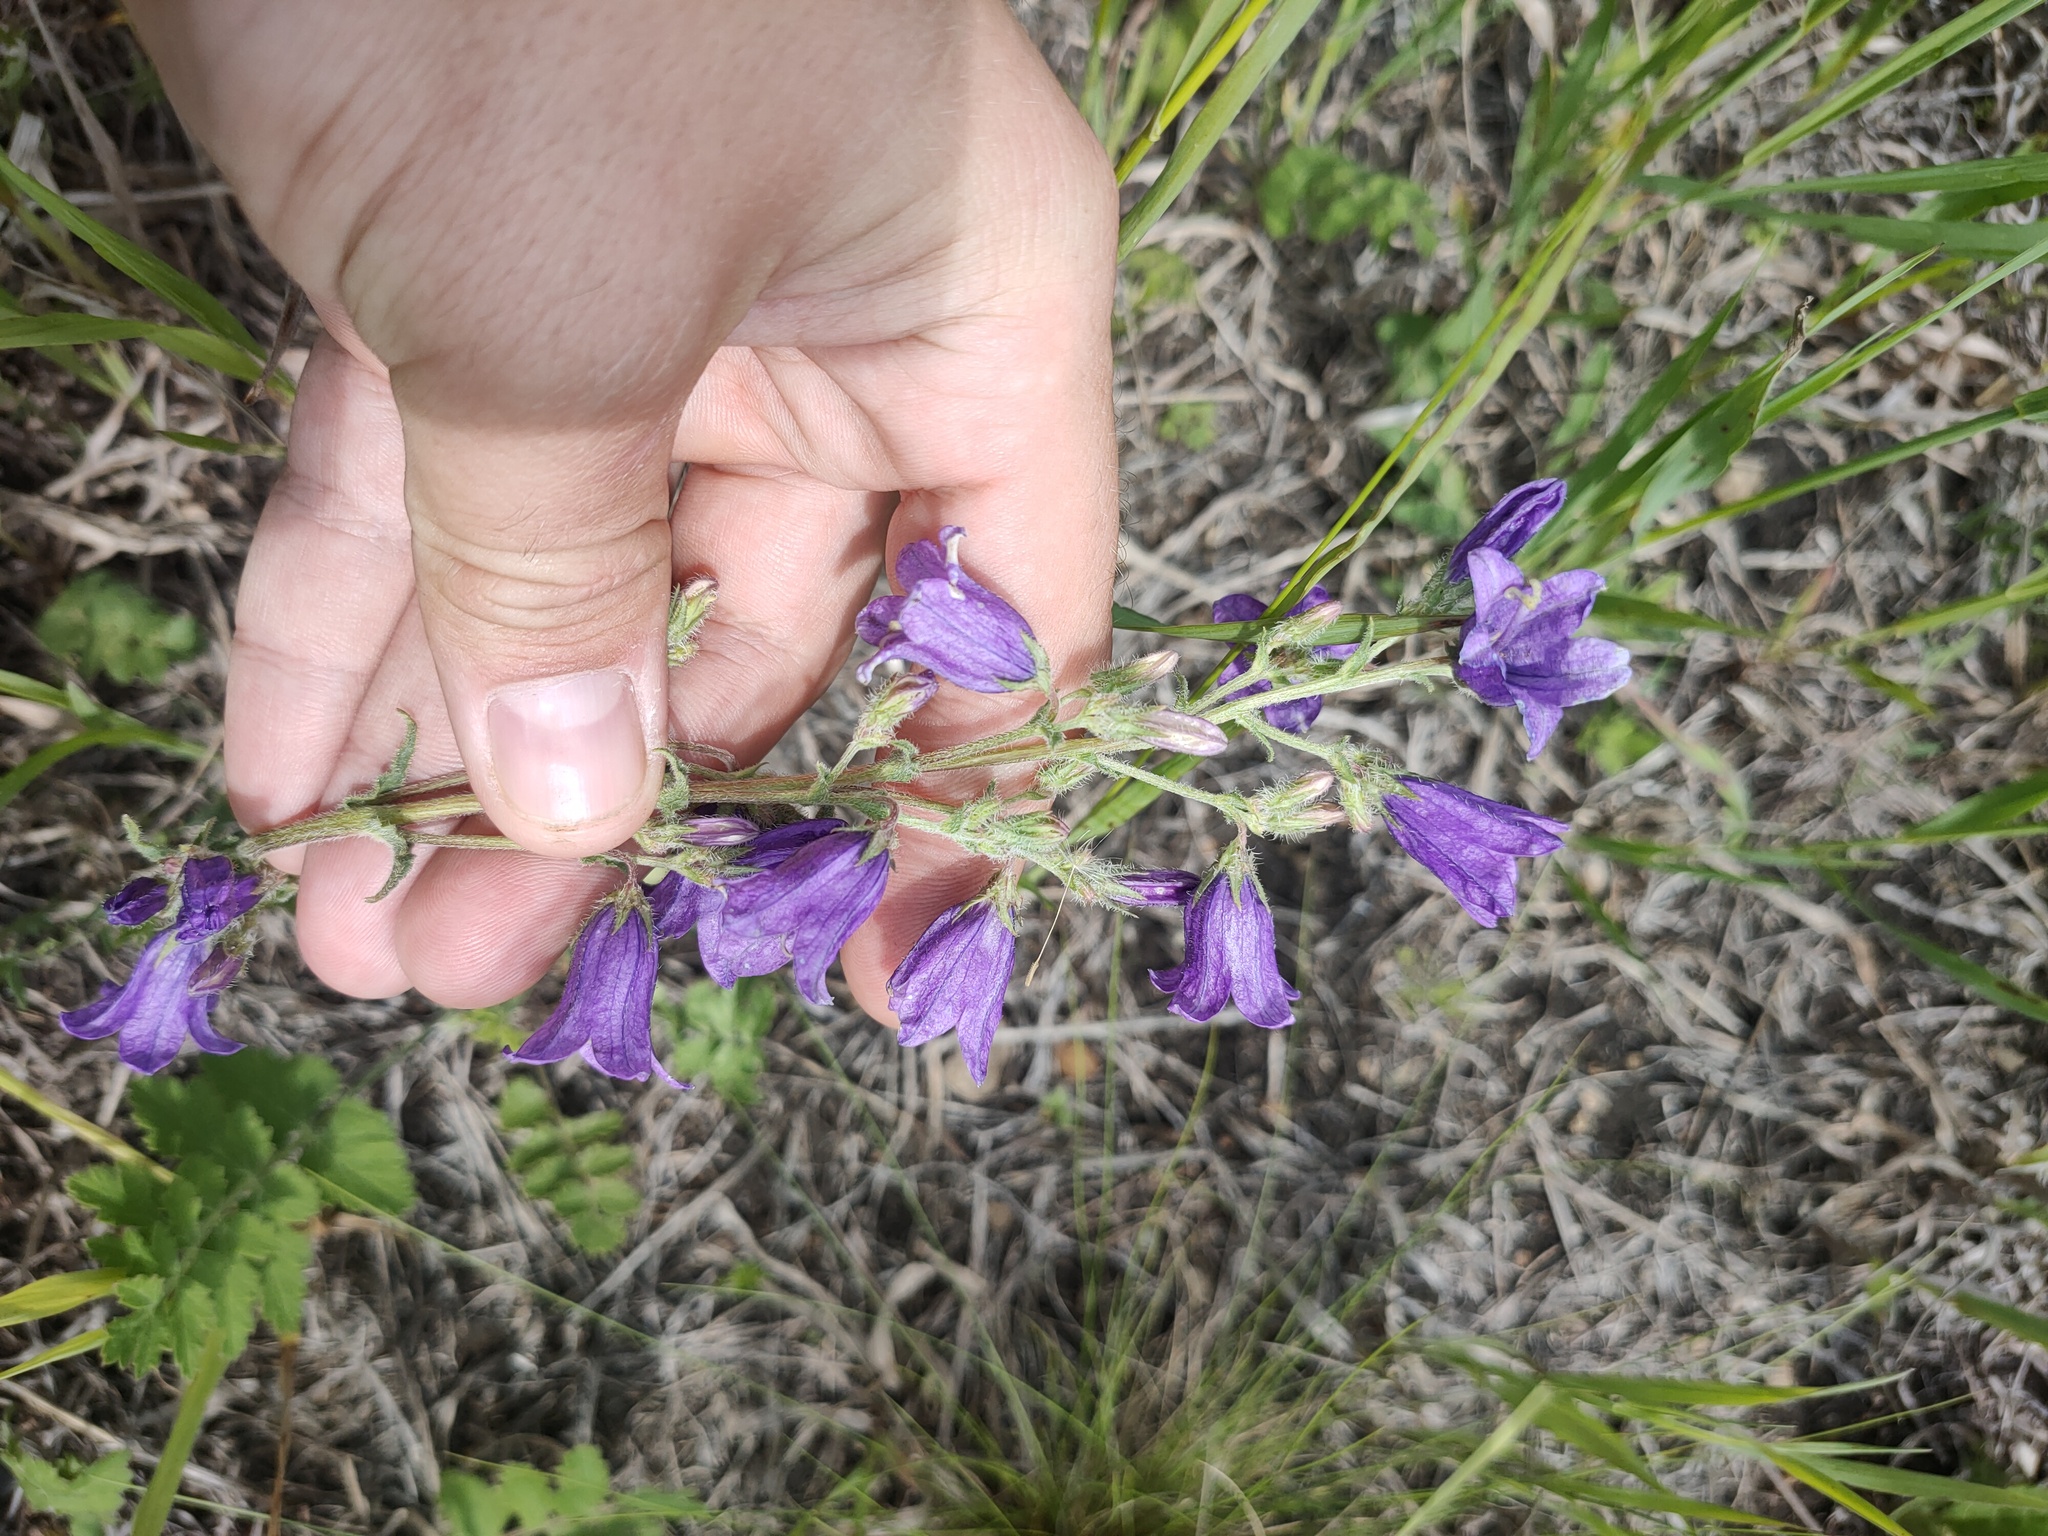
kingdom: Plantae
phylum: Tracheophyta
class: Magnoliopsida
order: Asterales
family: Campanulaceae
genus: Campanula
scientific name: Campanula sibirica
